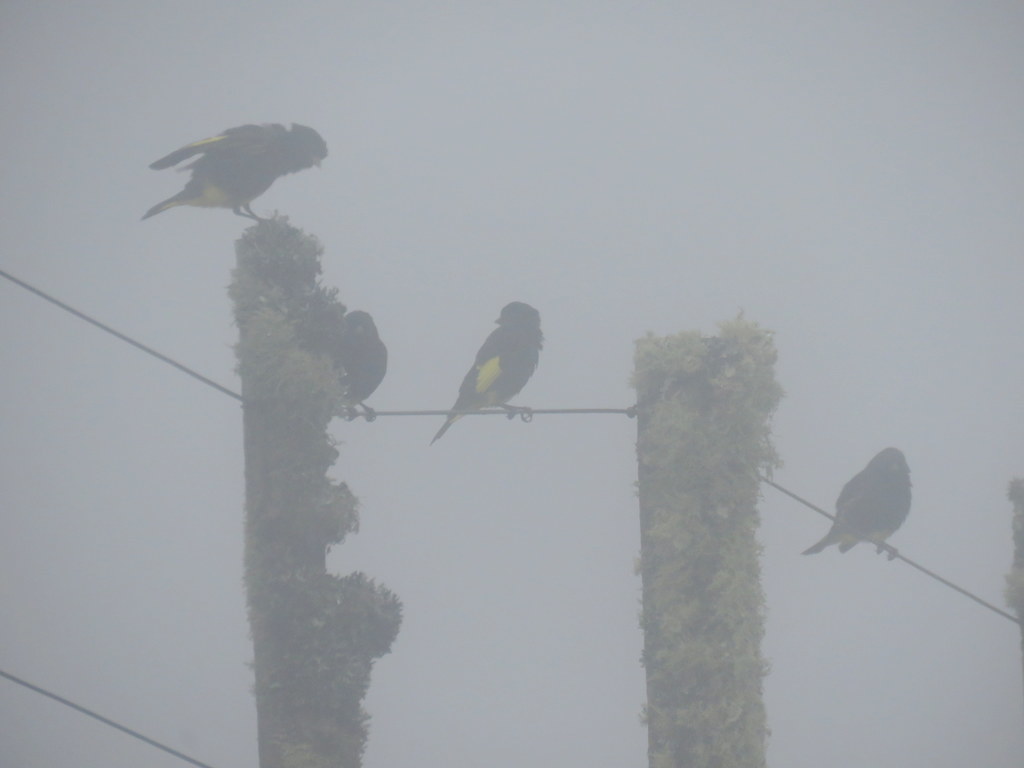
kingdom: Animalia
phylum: Chordata
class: Aves
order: Passeriformes
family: Fringillidae
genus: Spinus
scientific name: Spinus atratus
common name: Black siskin
